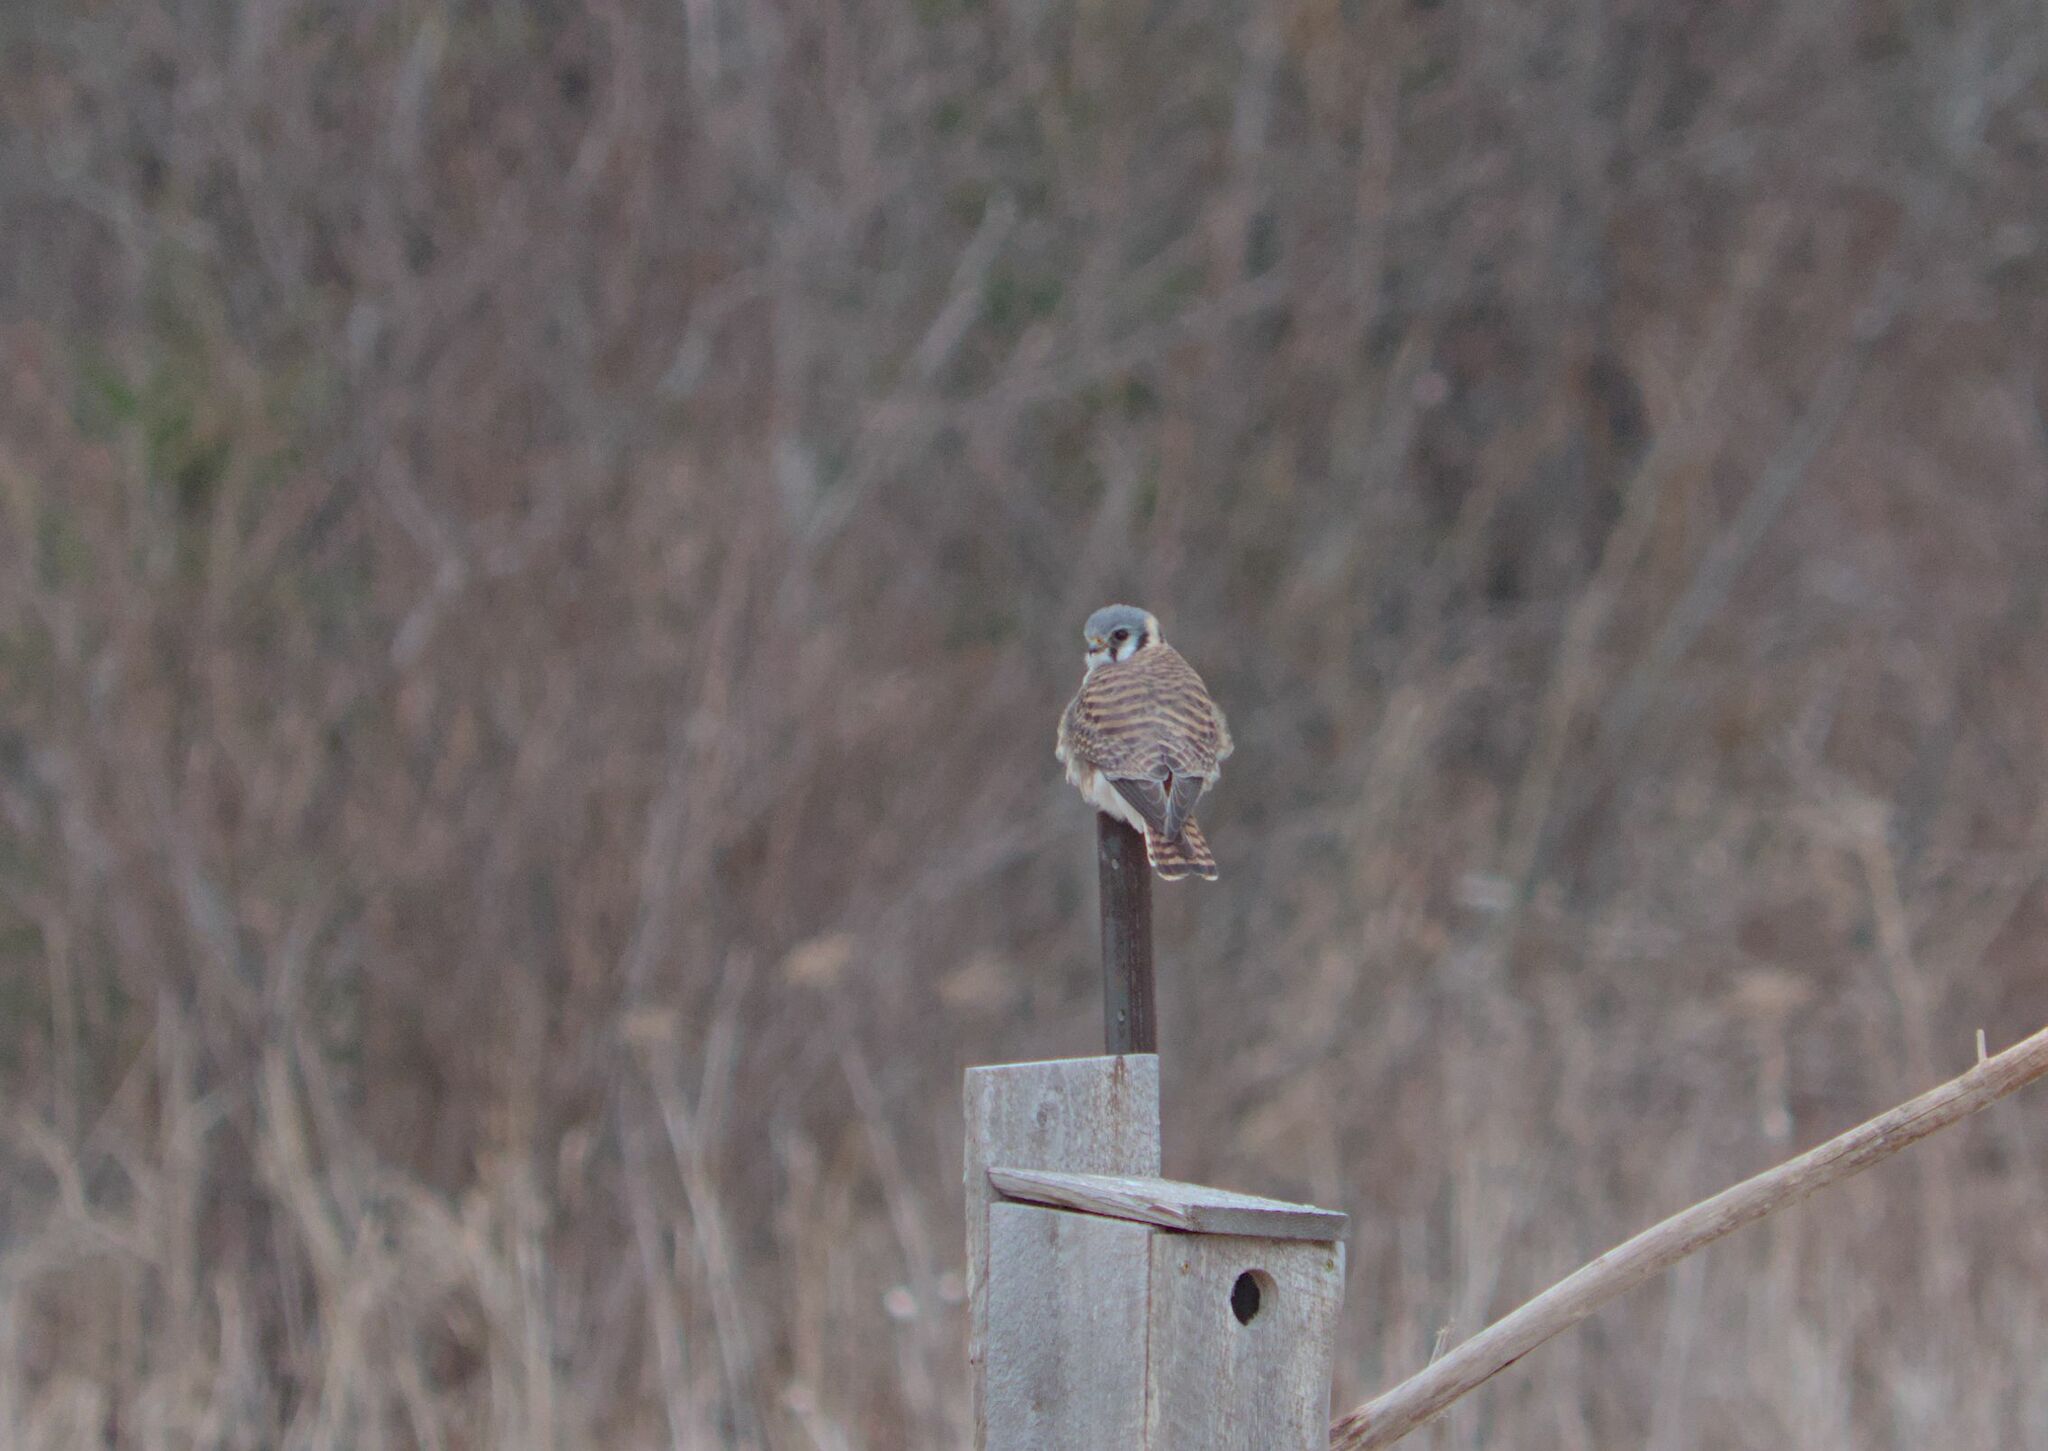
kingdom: Animalia
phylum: Chordata
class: Aves
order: Falconiformes
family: Falconidae
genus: Falco
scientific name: Falco sparverius
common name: American kestrel
